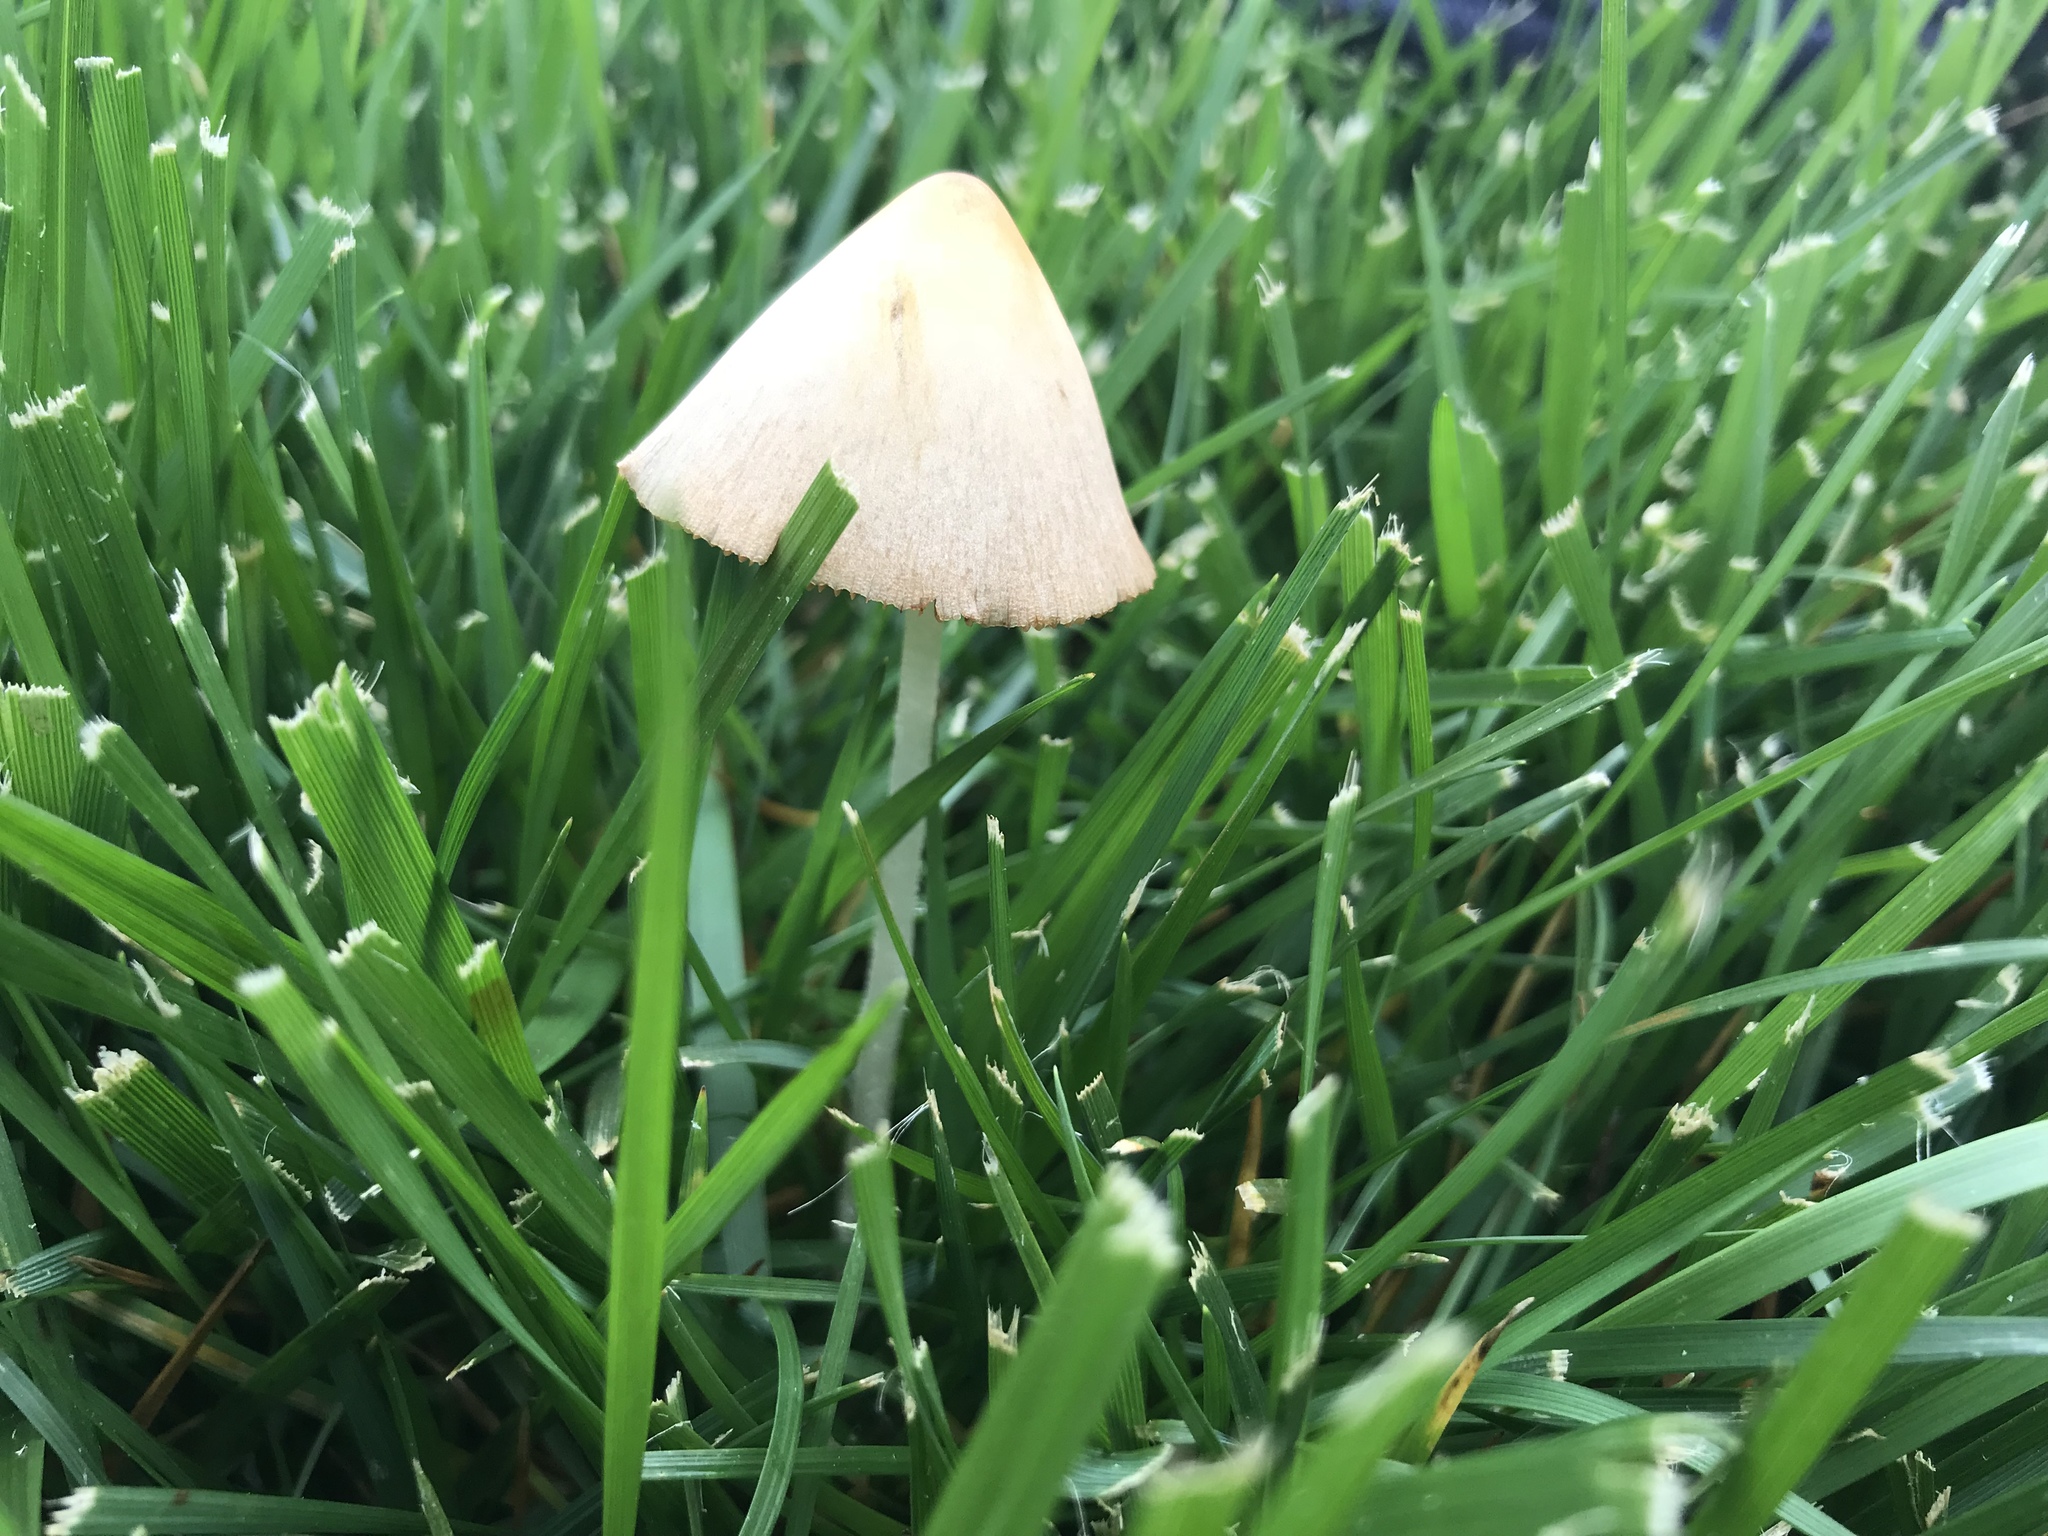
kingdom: Fungi
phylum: Basidiomycota
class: Agaricomycetes
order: Agaricales
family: Bolbitiaceae
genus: Conocybe
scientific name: Conocybe apala
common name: Milky conecap
